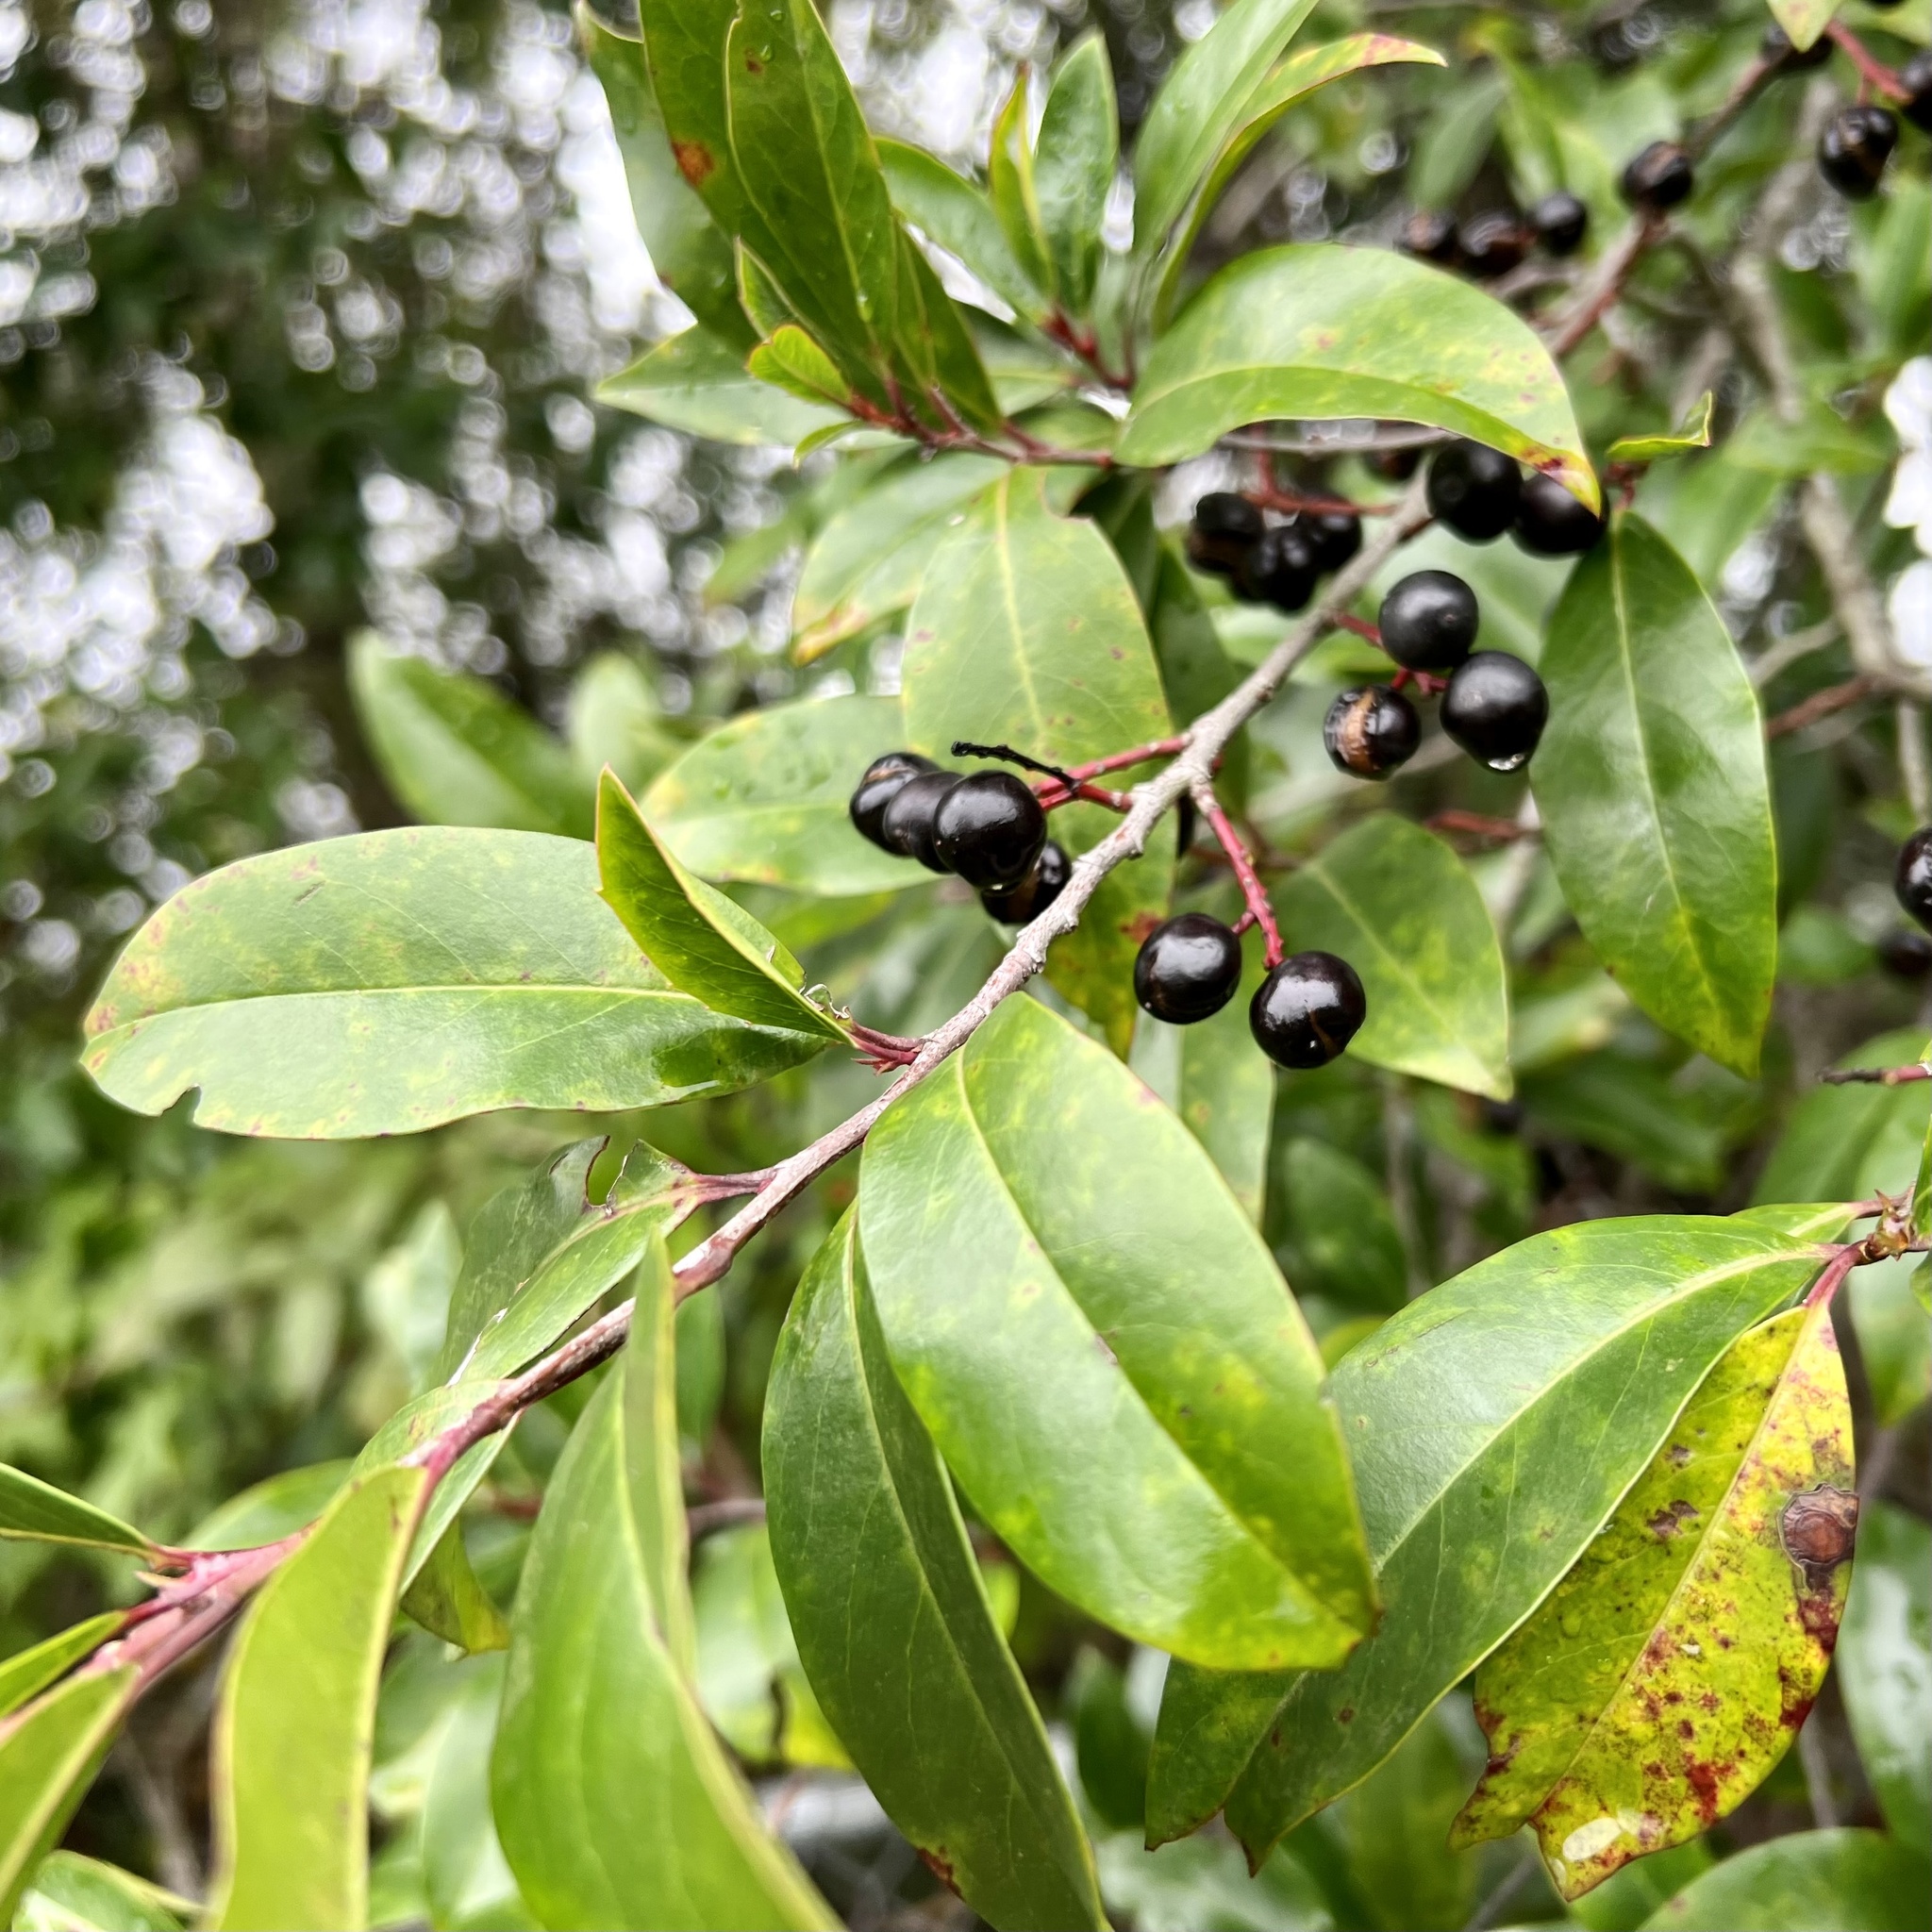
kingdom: Plantae
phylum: Tracheophyta
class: Magnoliopsida
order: Rosales
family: Rosaceae
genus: Prunus
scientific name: Prunus caroliniana
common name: Carolina laurel cherry
